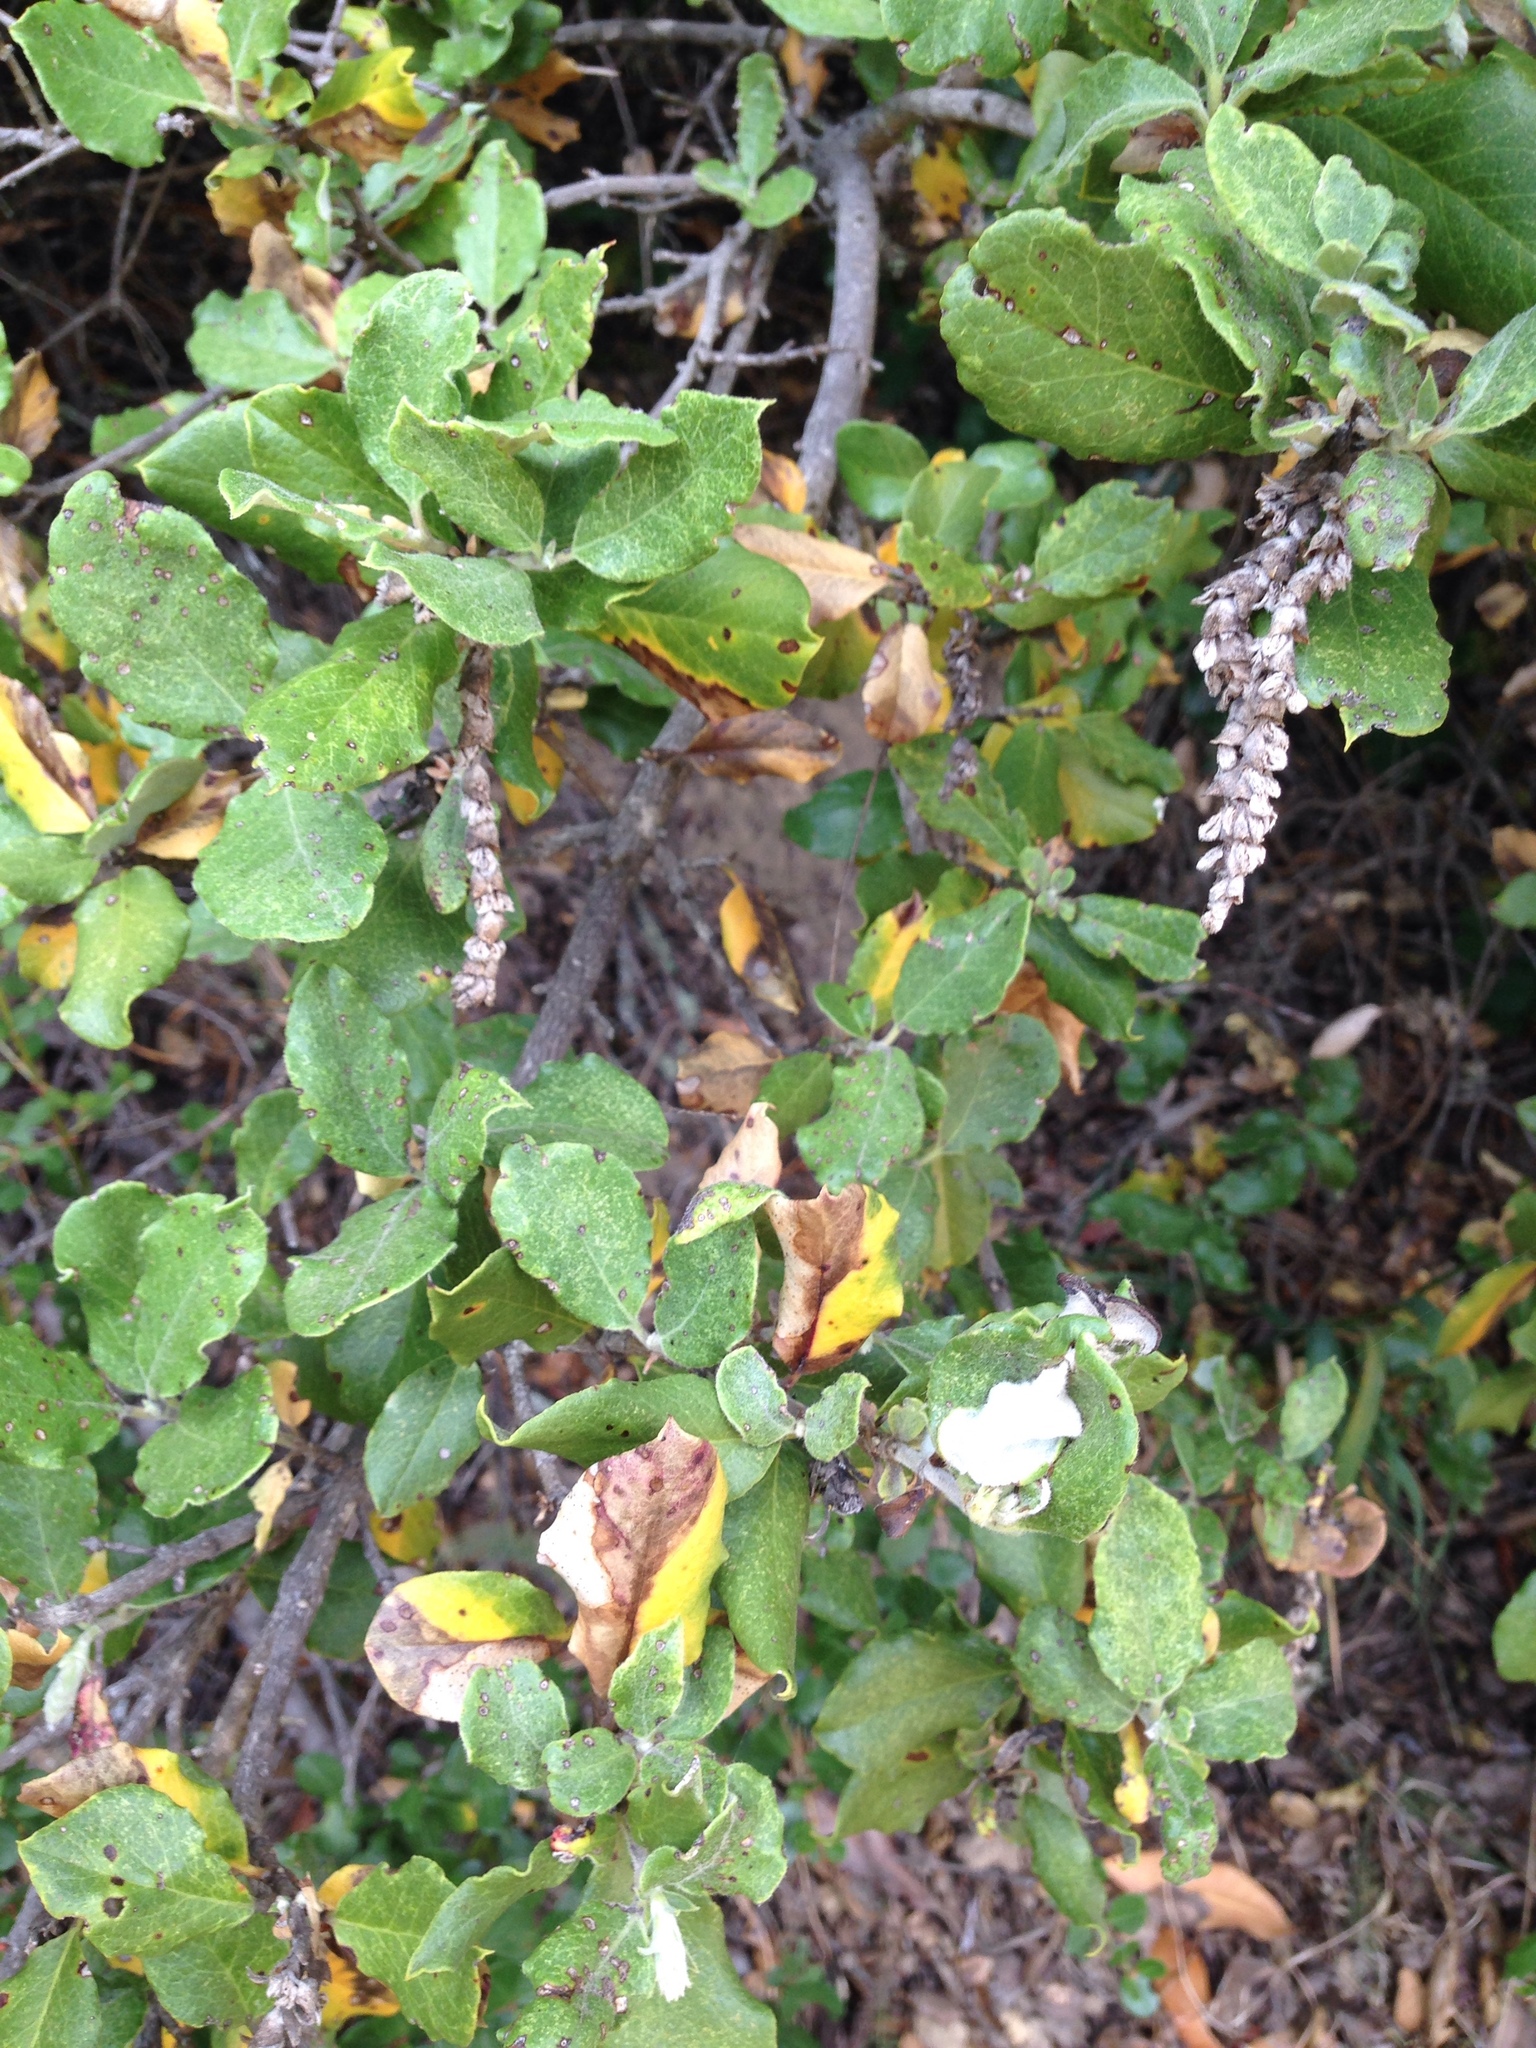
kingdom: Plantae
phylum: Tracheophyta
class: Magnoliopsida
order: Garryales
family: Garryaceae
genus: Garrya
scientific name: Garrya elliptica
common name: Silk-tassel
